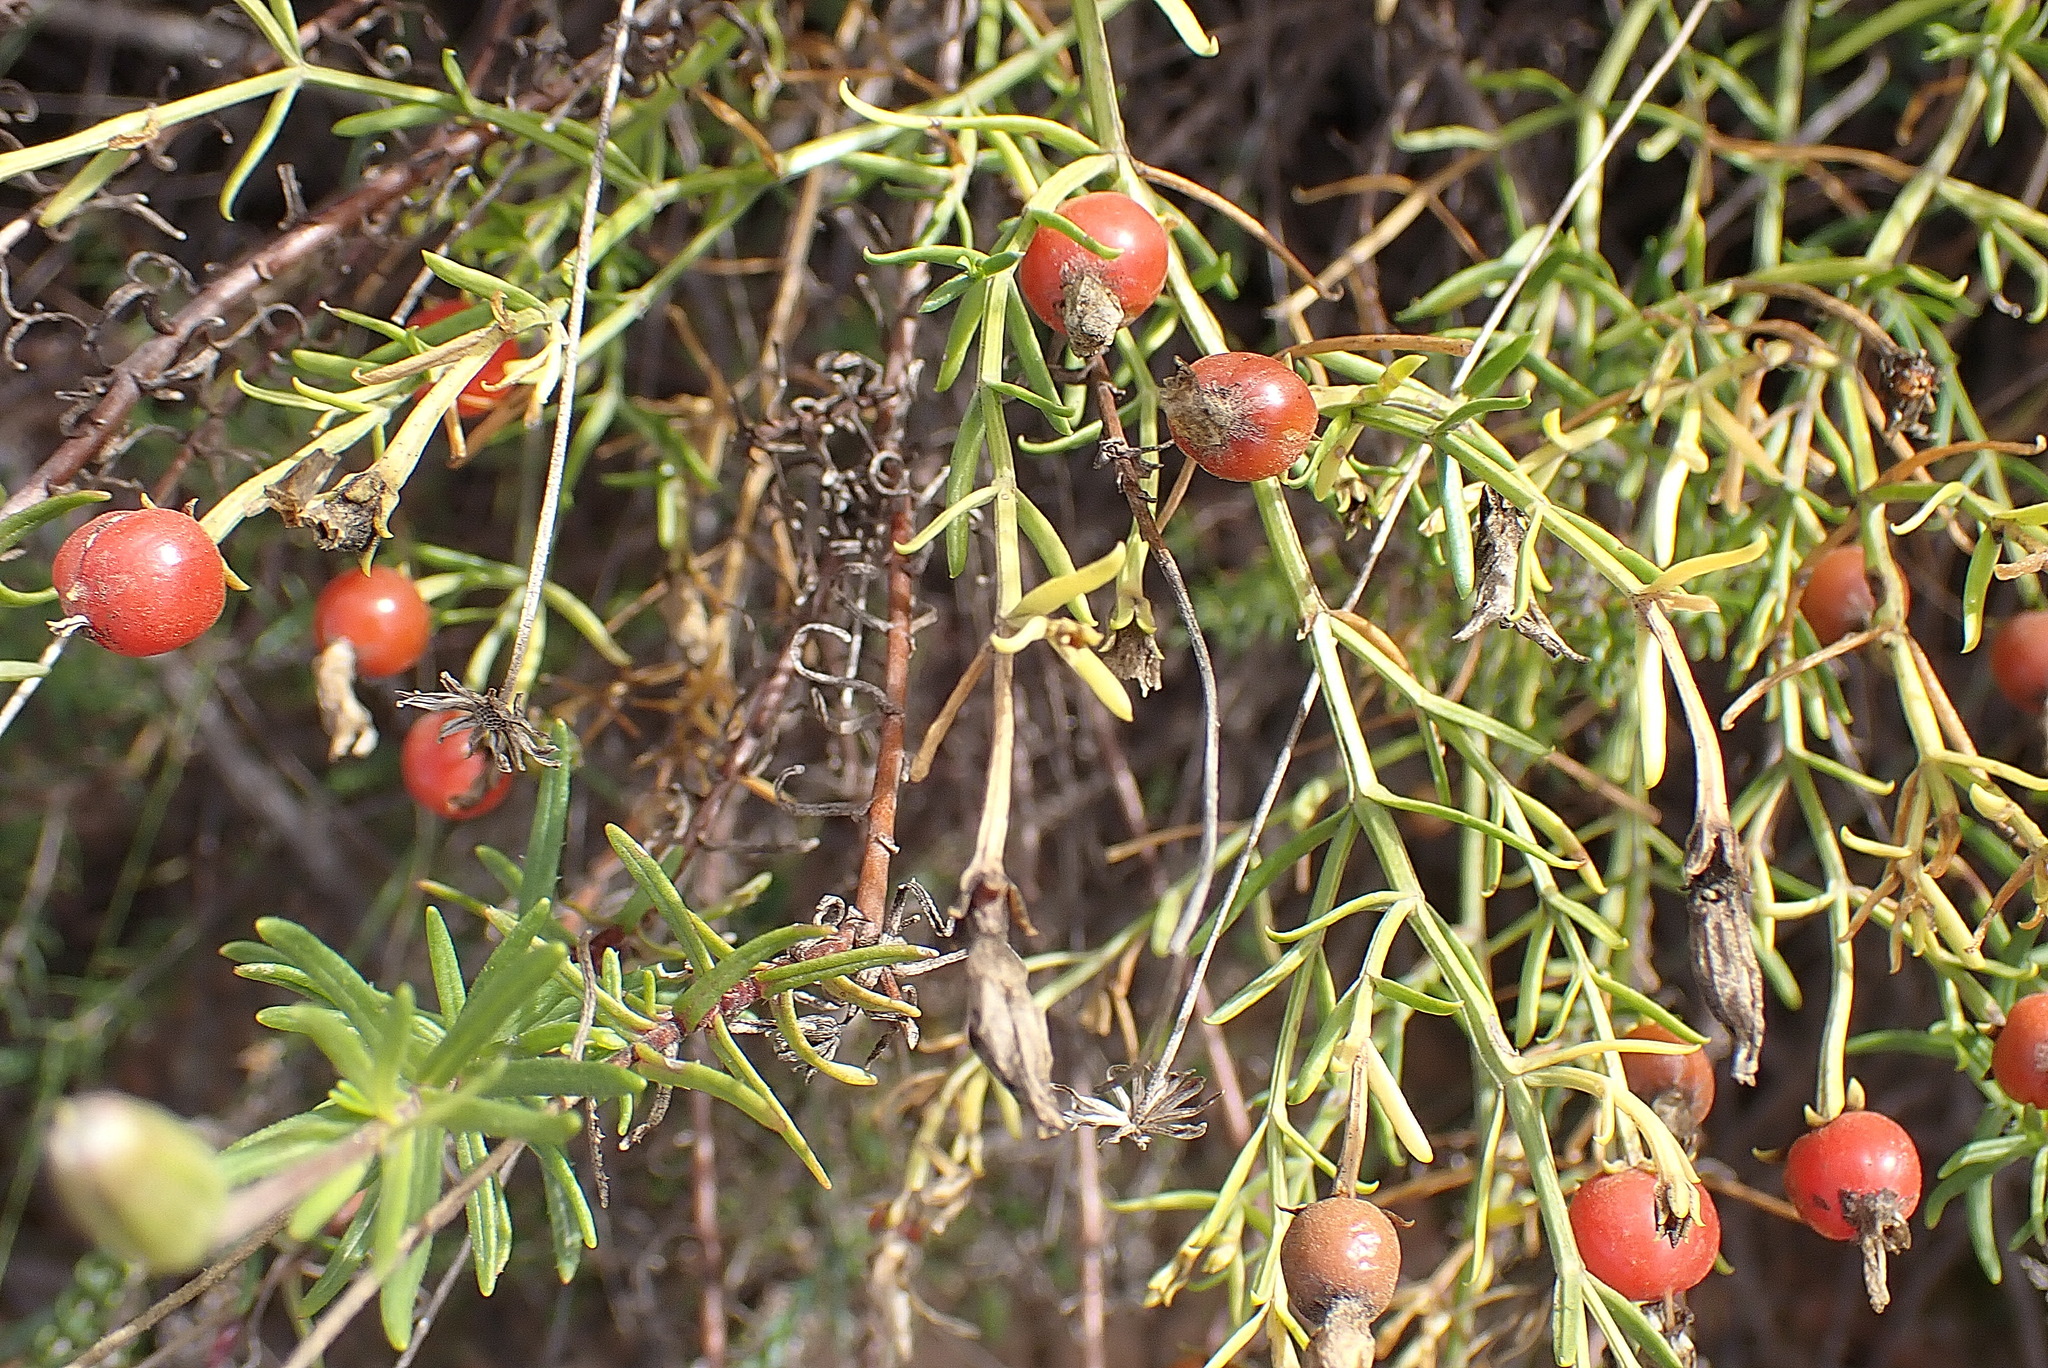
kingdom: Plantae
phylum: Tracheophyta
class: Magnoliopsida
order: Gentianales
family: Gentianaceae
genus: Chironia
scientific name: Chironia baccifera
